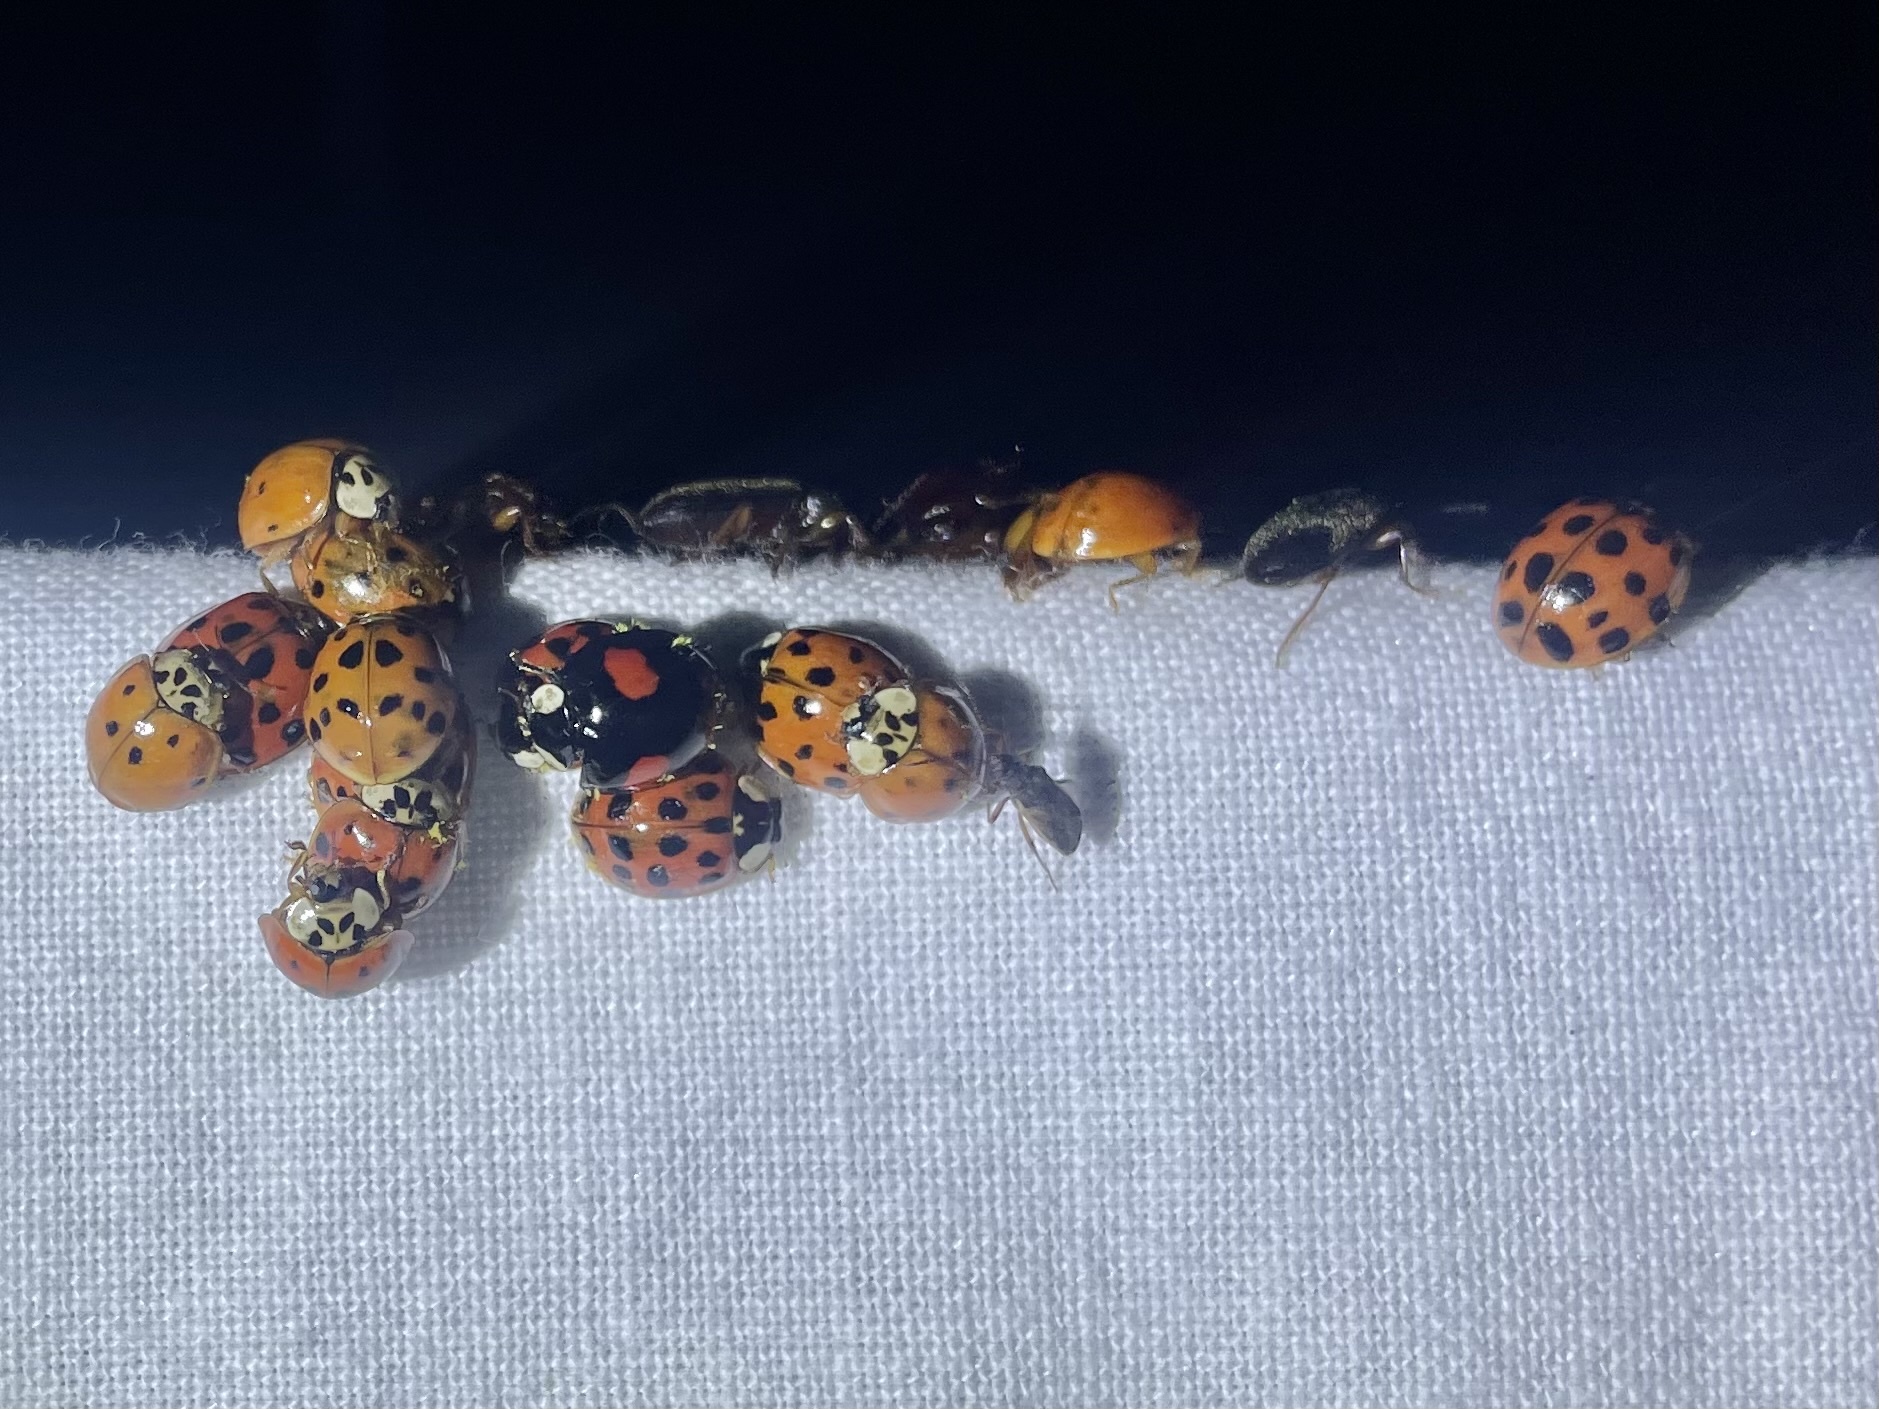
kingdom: Animalia
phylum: Arthropoda
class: Insecta
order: Coleoptera
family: Coccinellidae
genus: Harmonia
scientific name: Harmonia axyridis
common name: Harlequin ladybird
